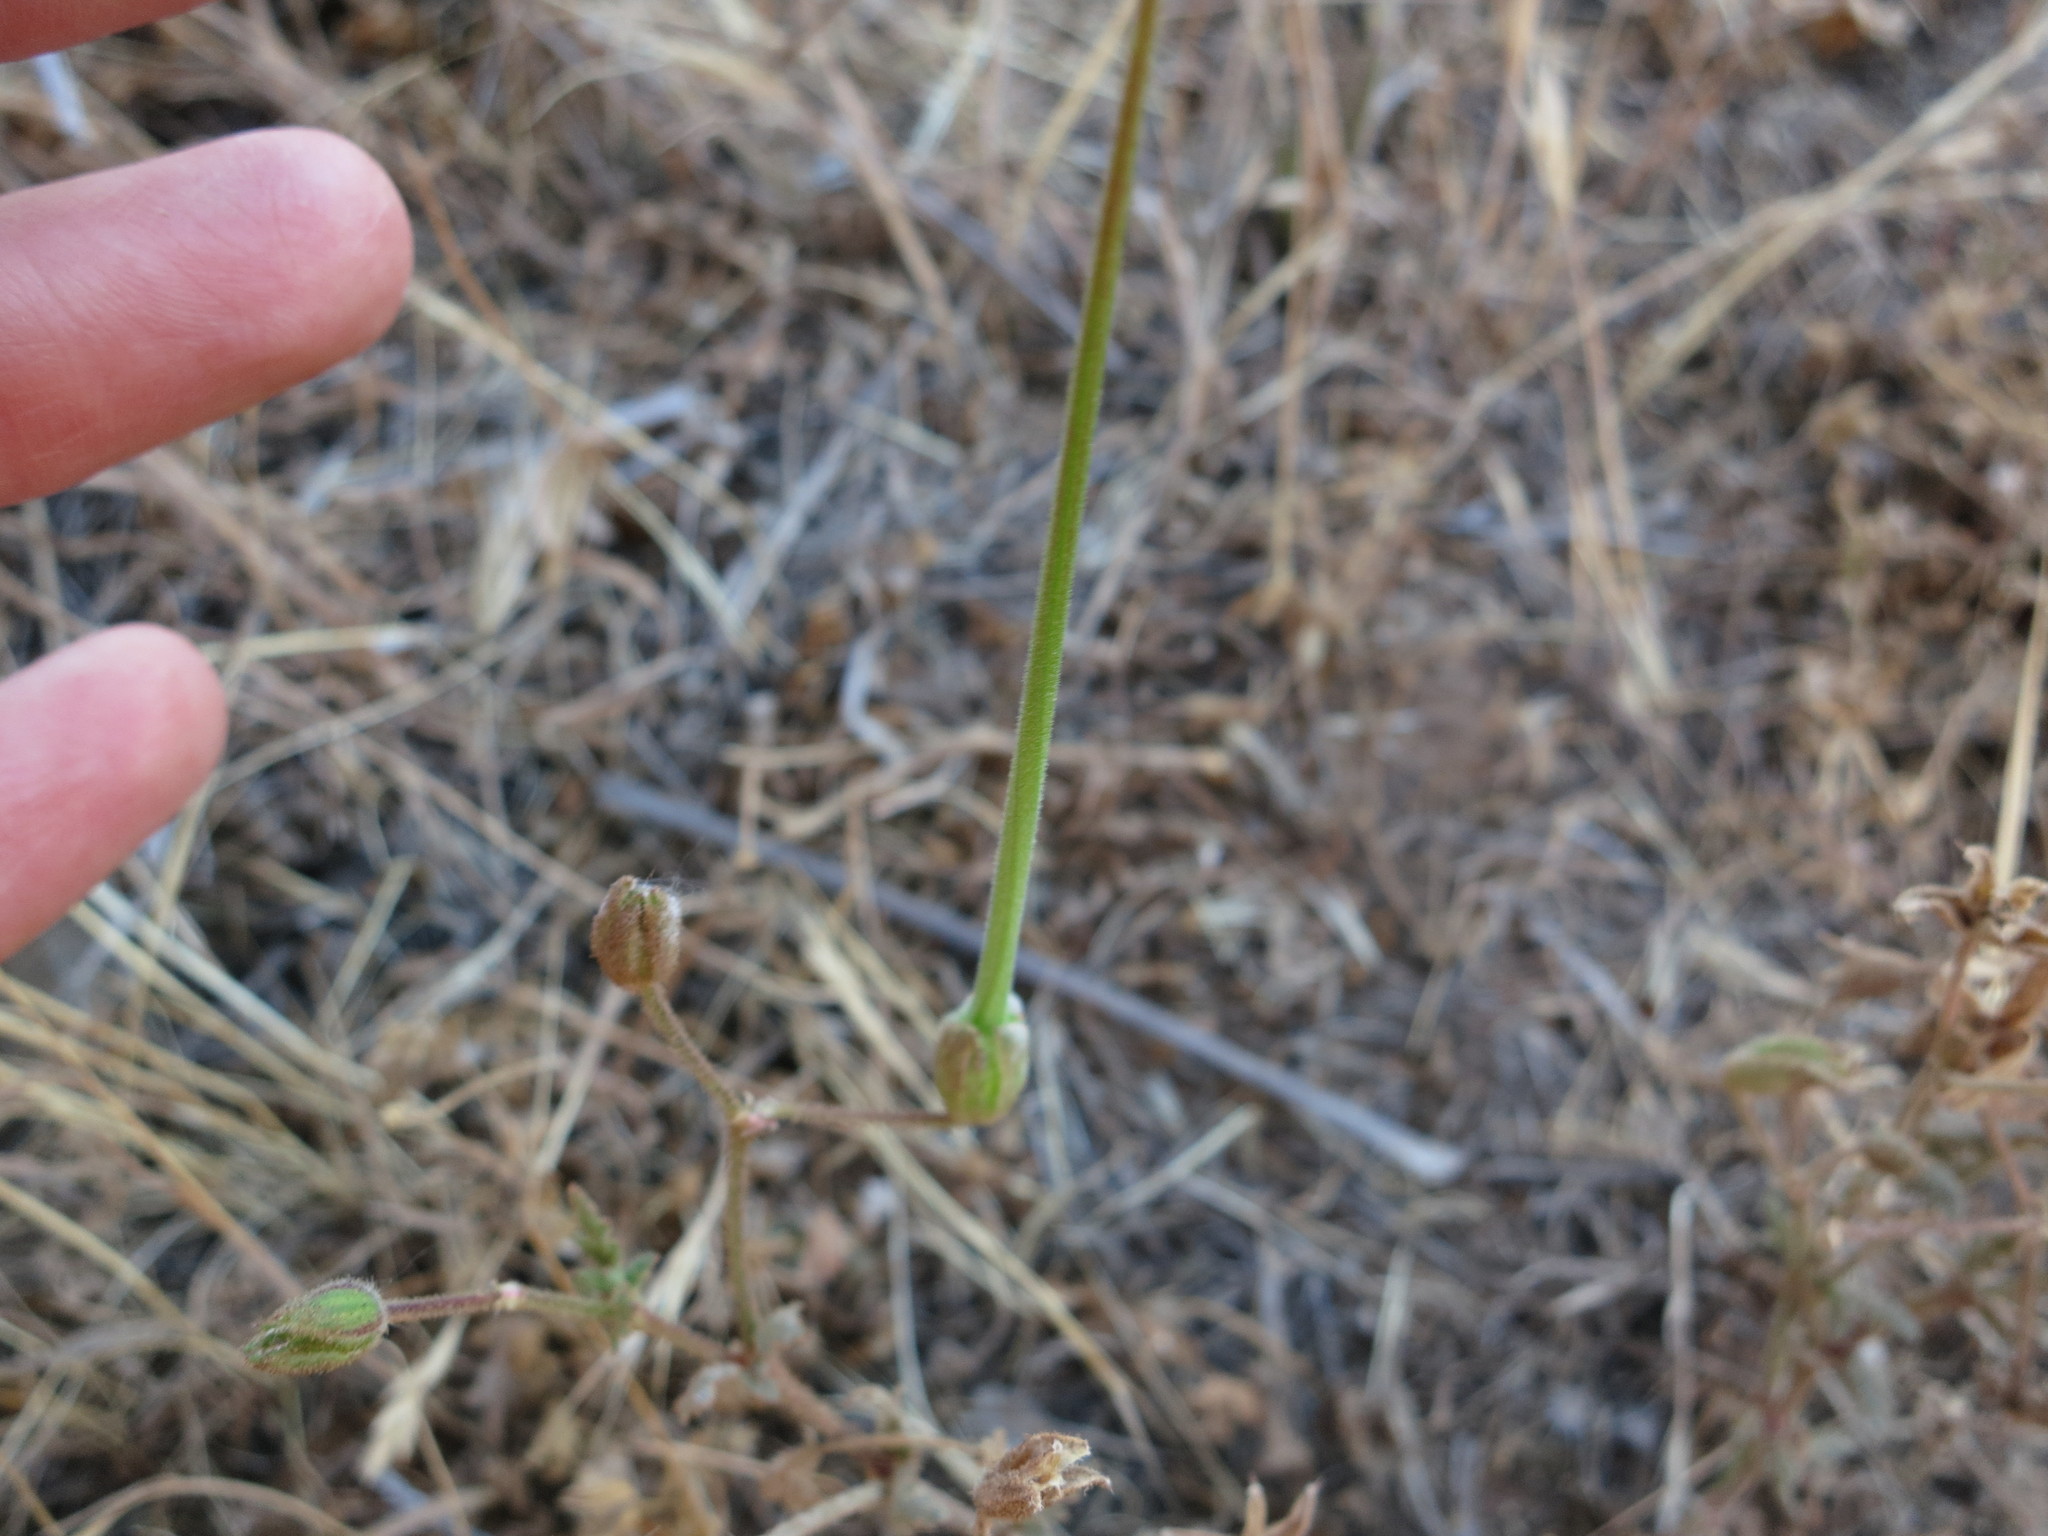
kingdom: Plantae
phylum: Tracheophyta
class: Magnoliopsida
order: Geraniales
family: Geraniaceae
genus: Erodium
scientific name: Erodium botrys
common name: Mediterranean stork's-bill
